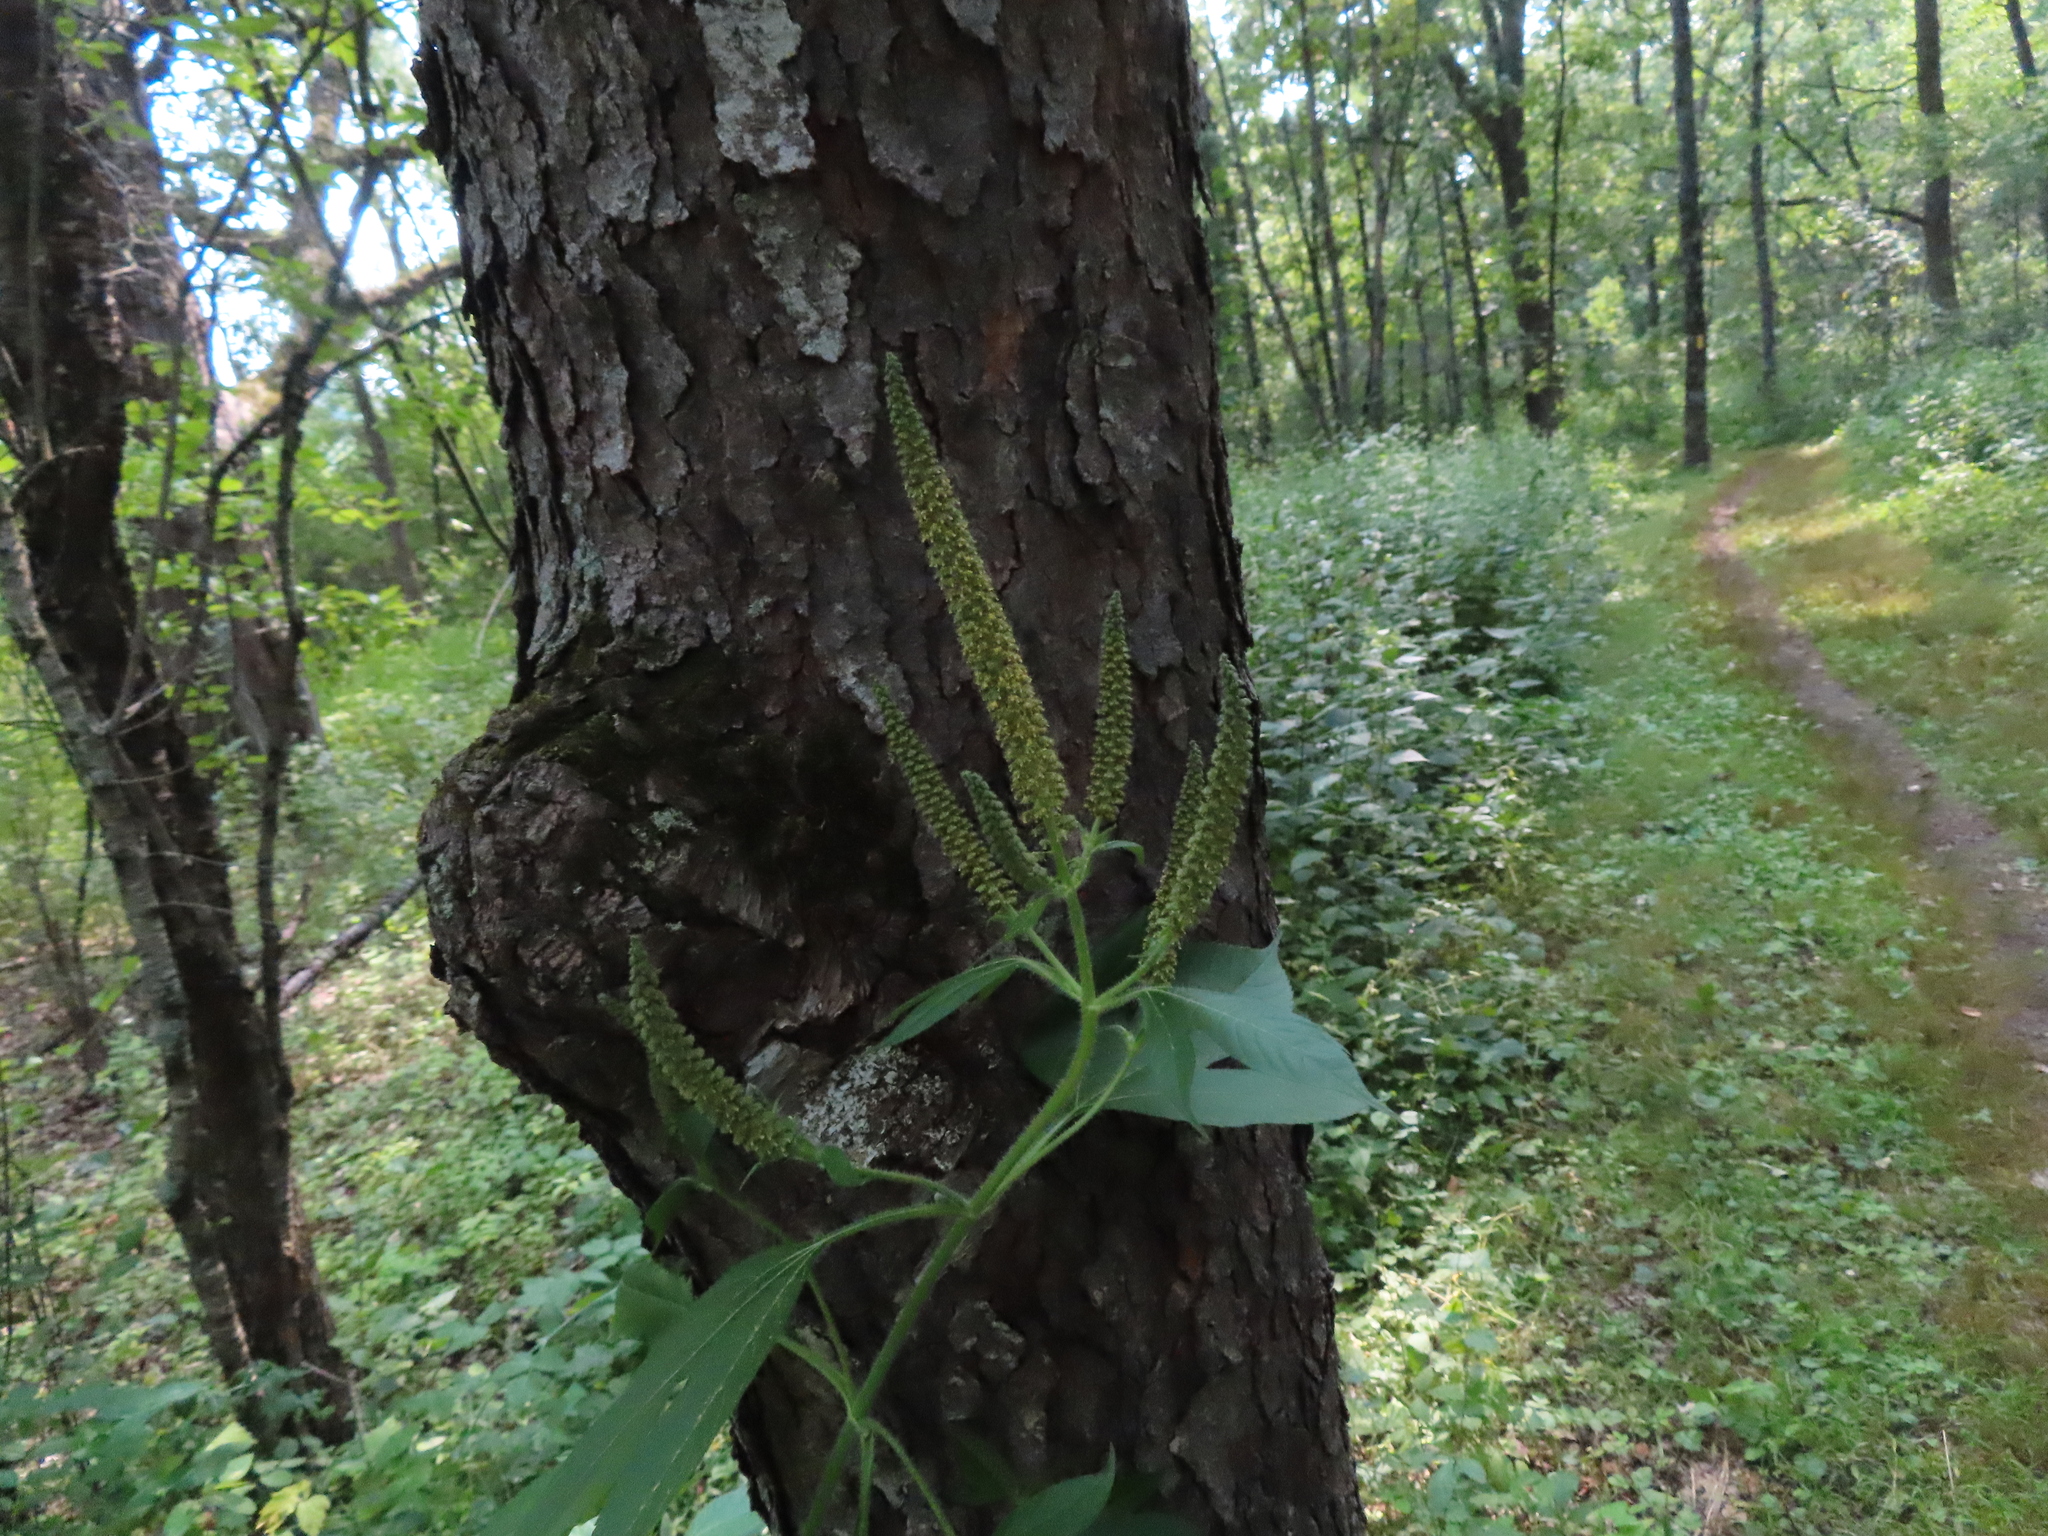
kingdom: Plantae
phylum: Tracheophyta
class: Magnoliopsida
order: Asterales
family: Asteraceae
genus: Ambrosia
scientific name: Ambrosia trifida
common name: Giant ragweed
